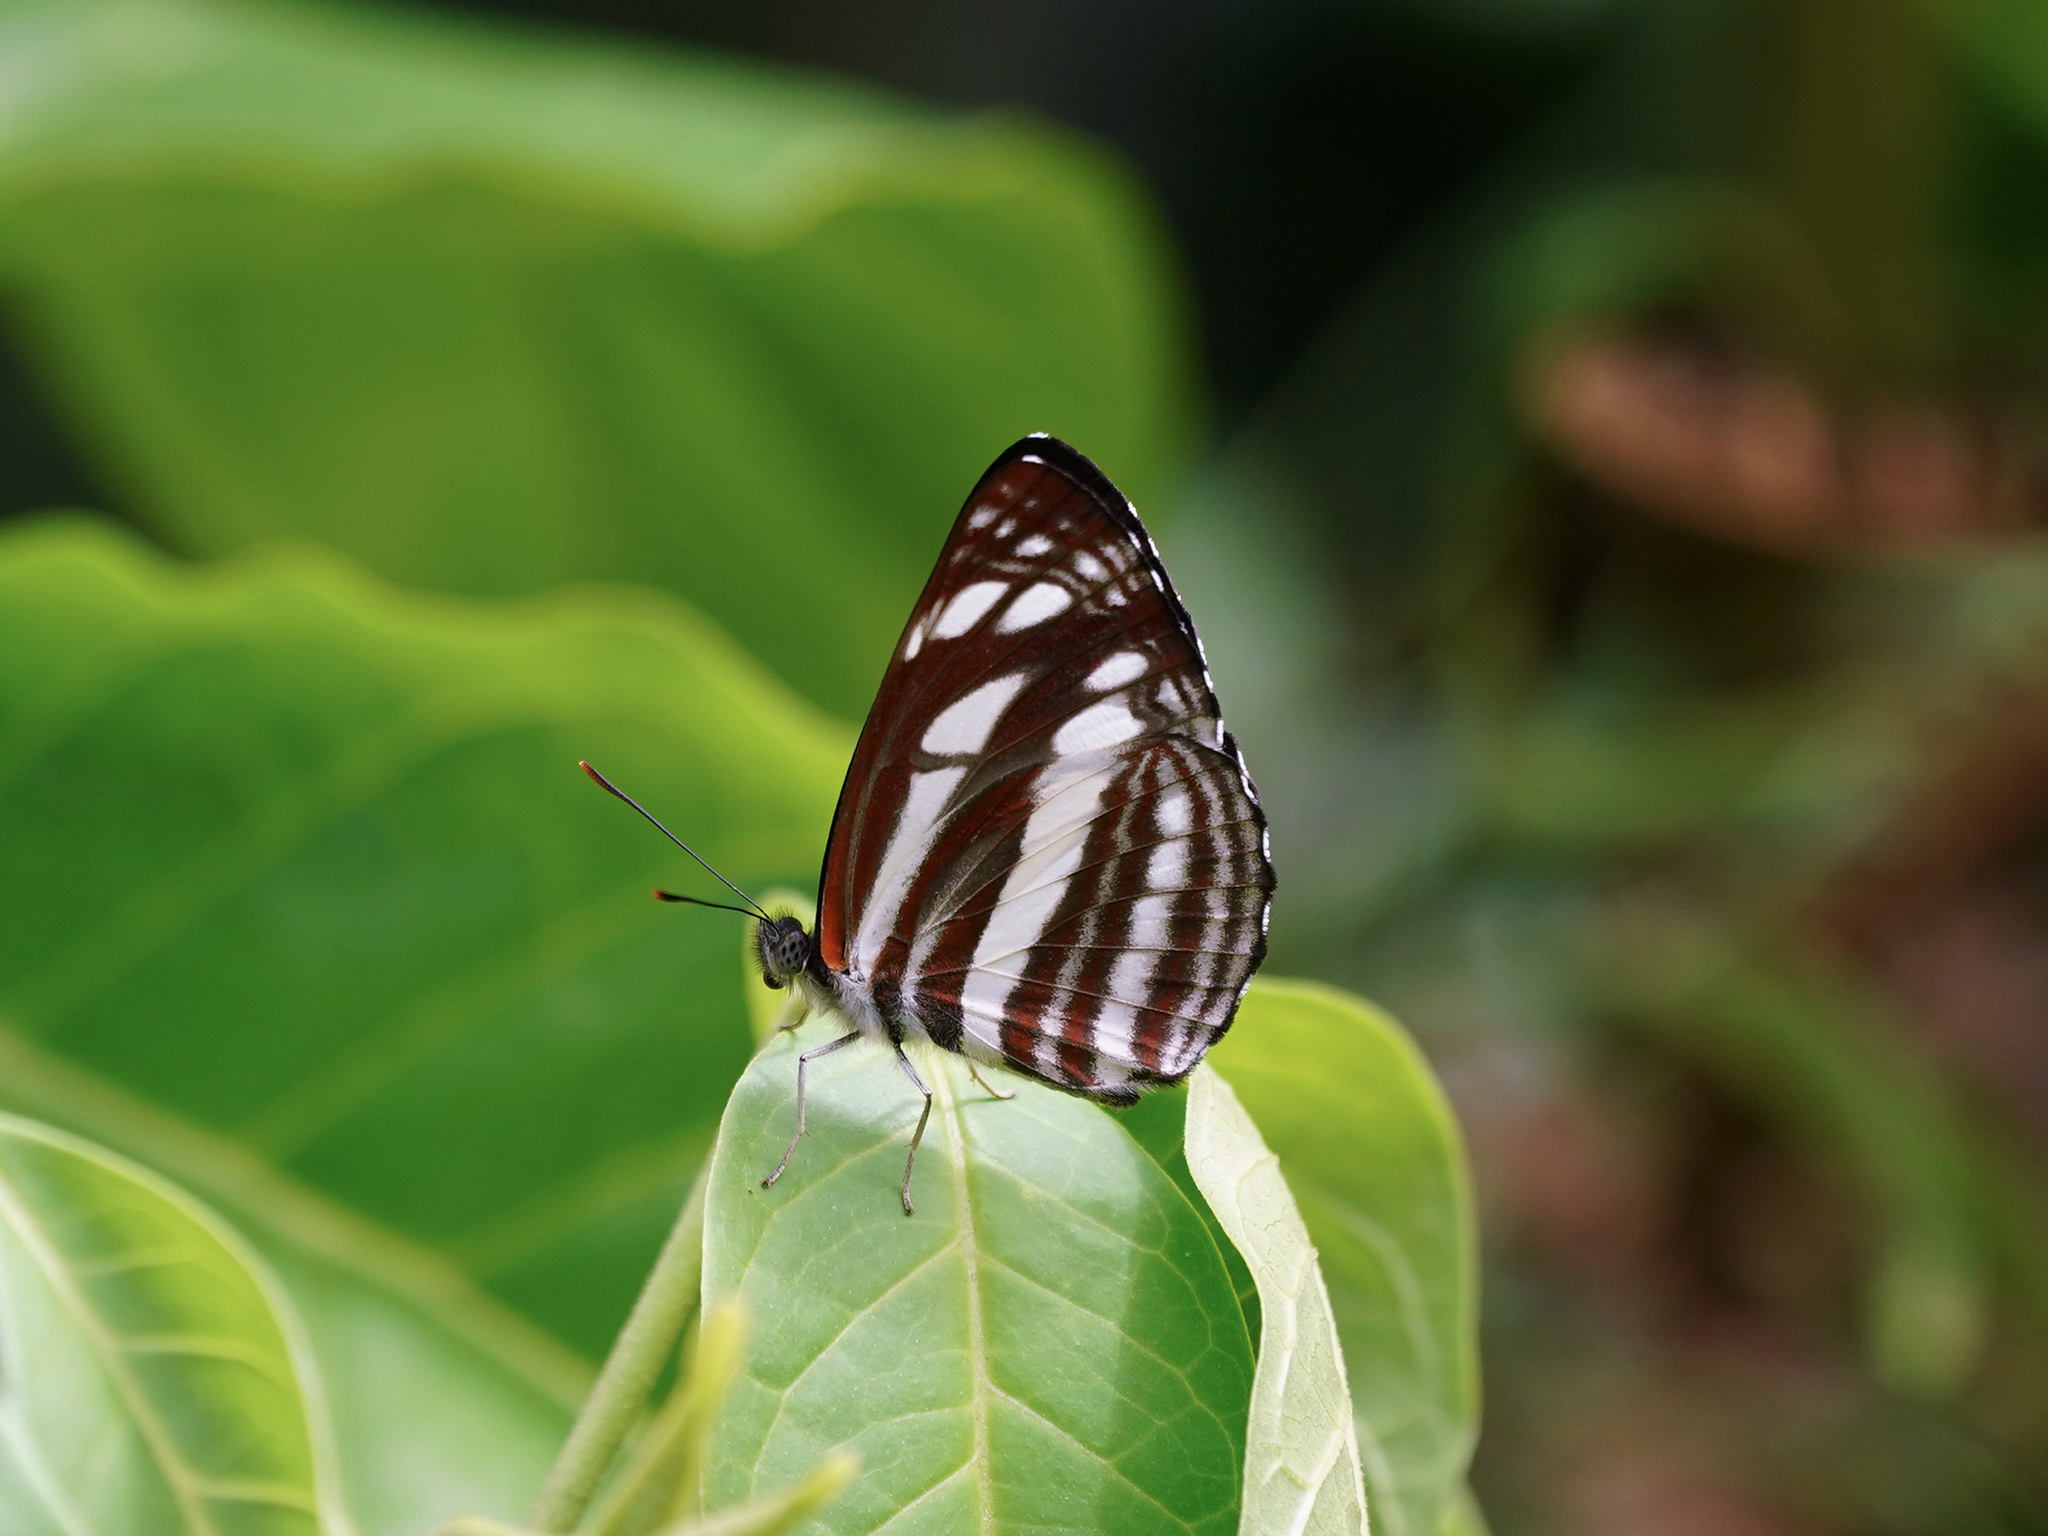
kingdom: Animalia
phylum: Arthropoda
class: Insecta
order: Lepidoptera
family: Nymphalidae
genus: Neptis
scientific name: Neptis soma
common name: Cream-spotted sailor
